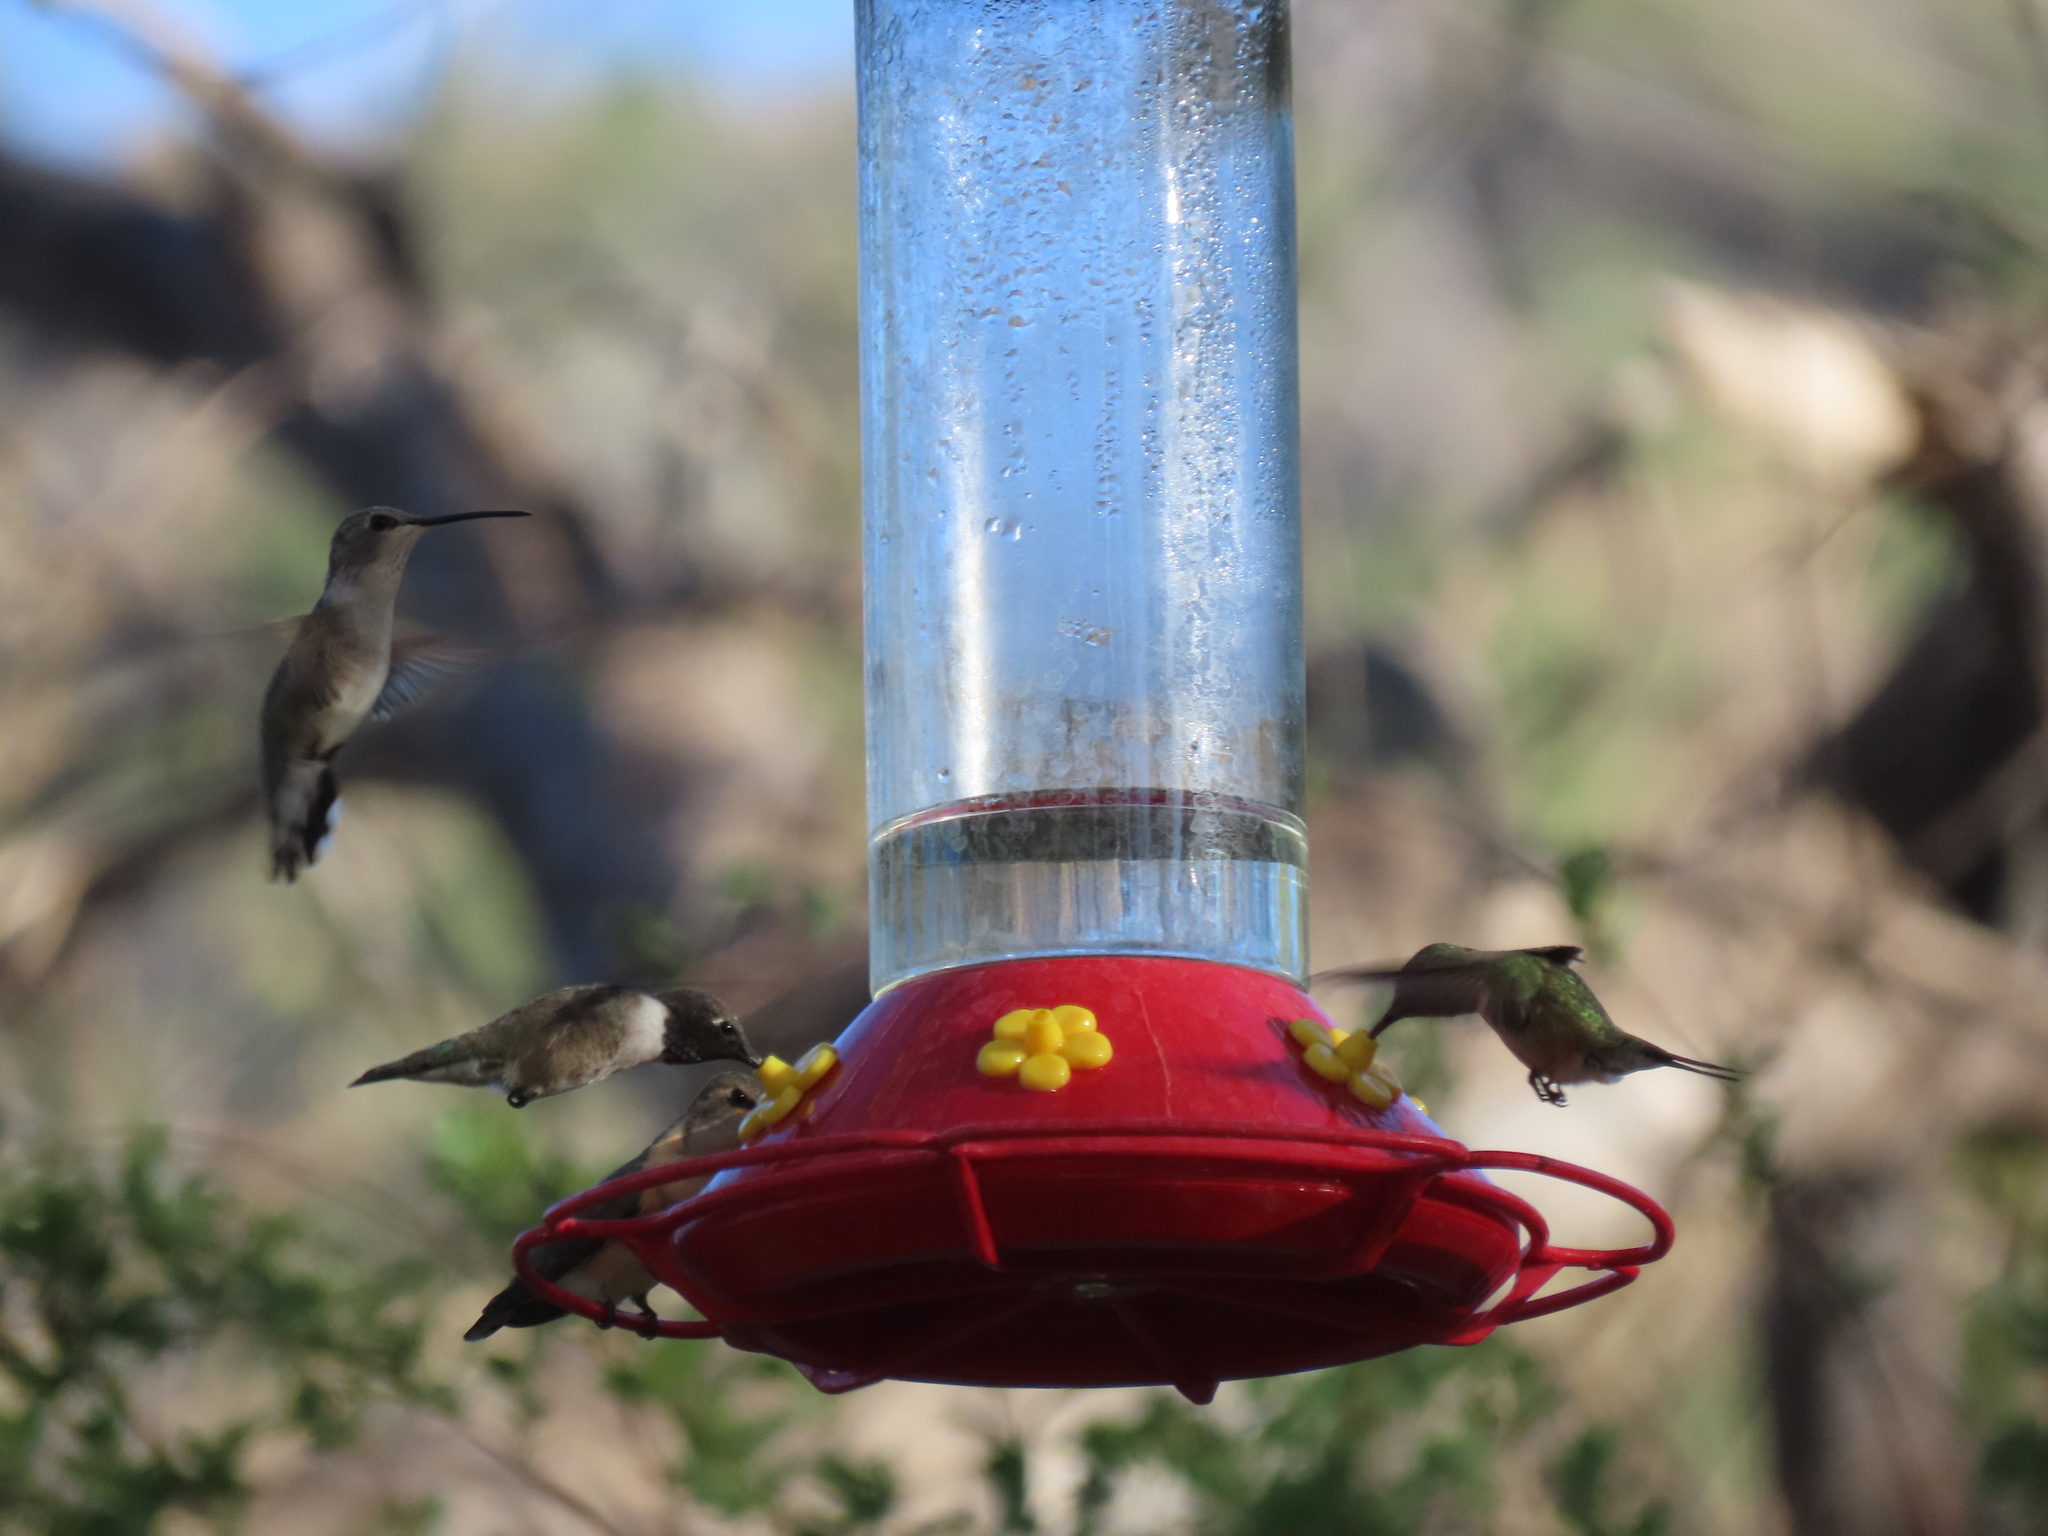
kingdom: Animalia
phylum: Chordata
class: Aves
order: Apodiformes
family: Trochilidae
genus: Archilochus
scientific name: Archilochus alexandri
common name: Black-chinned hummingbird
